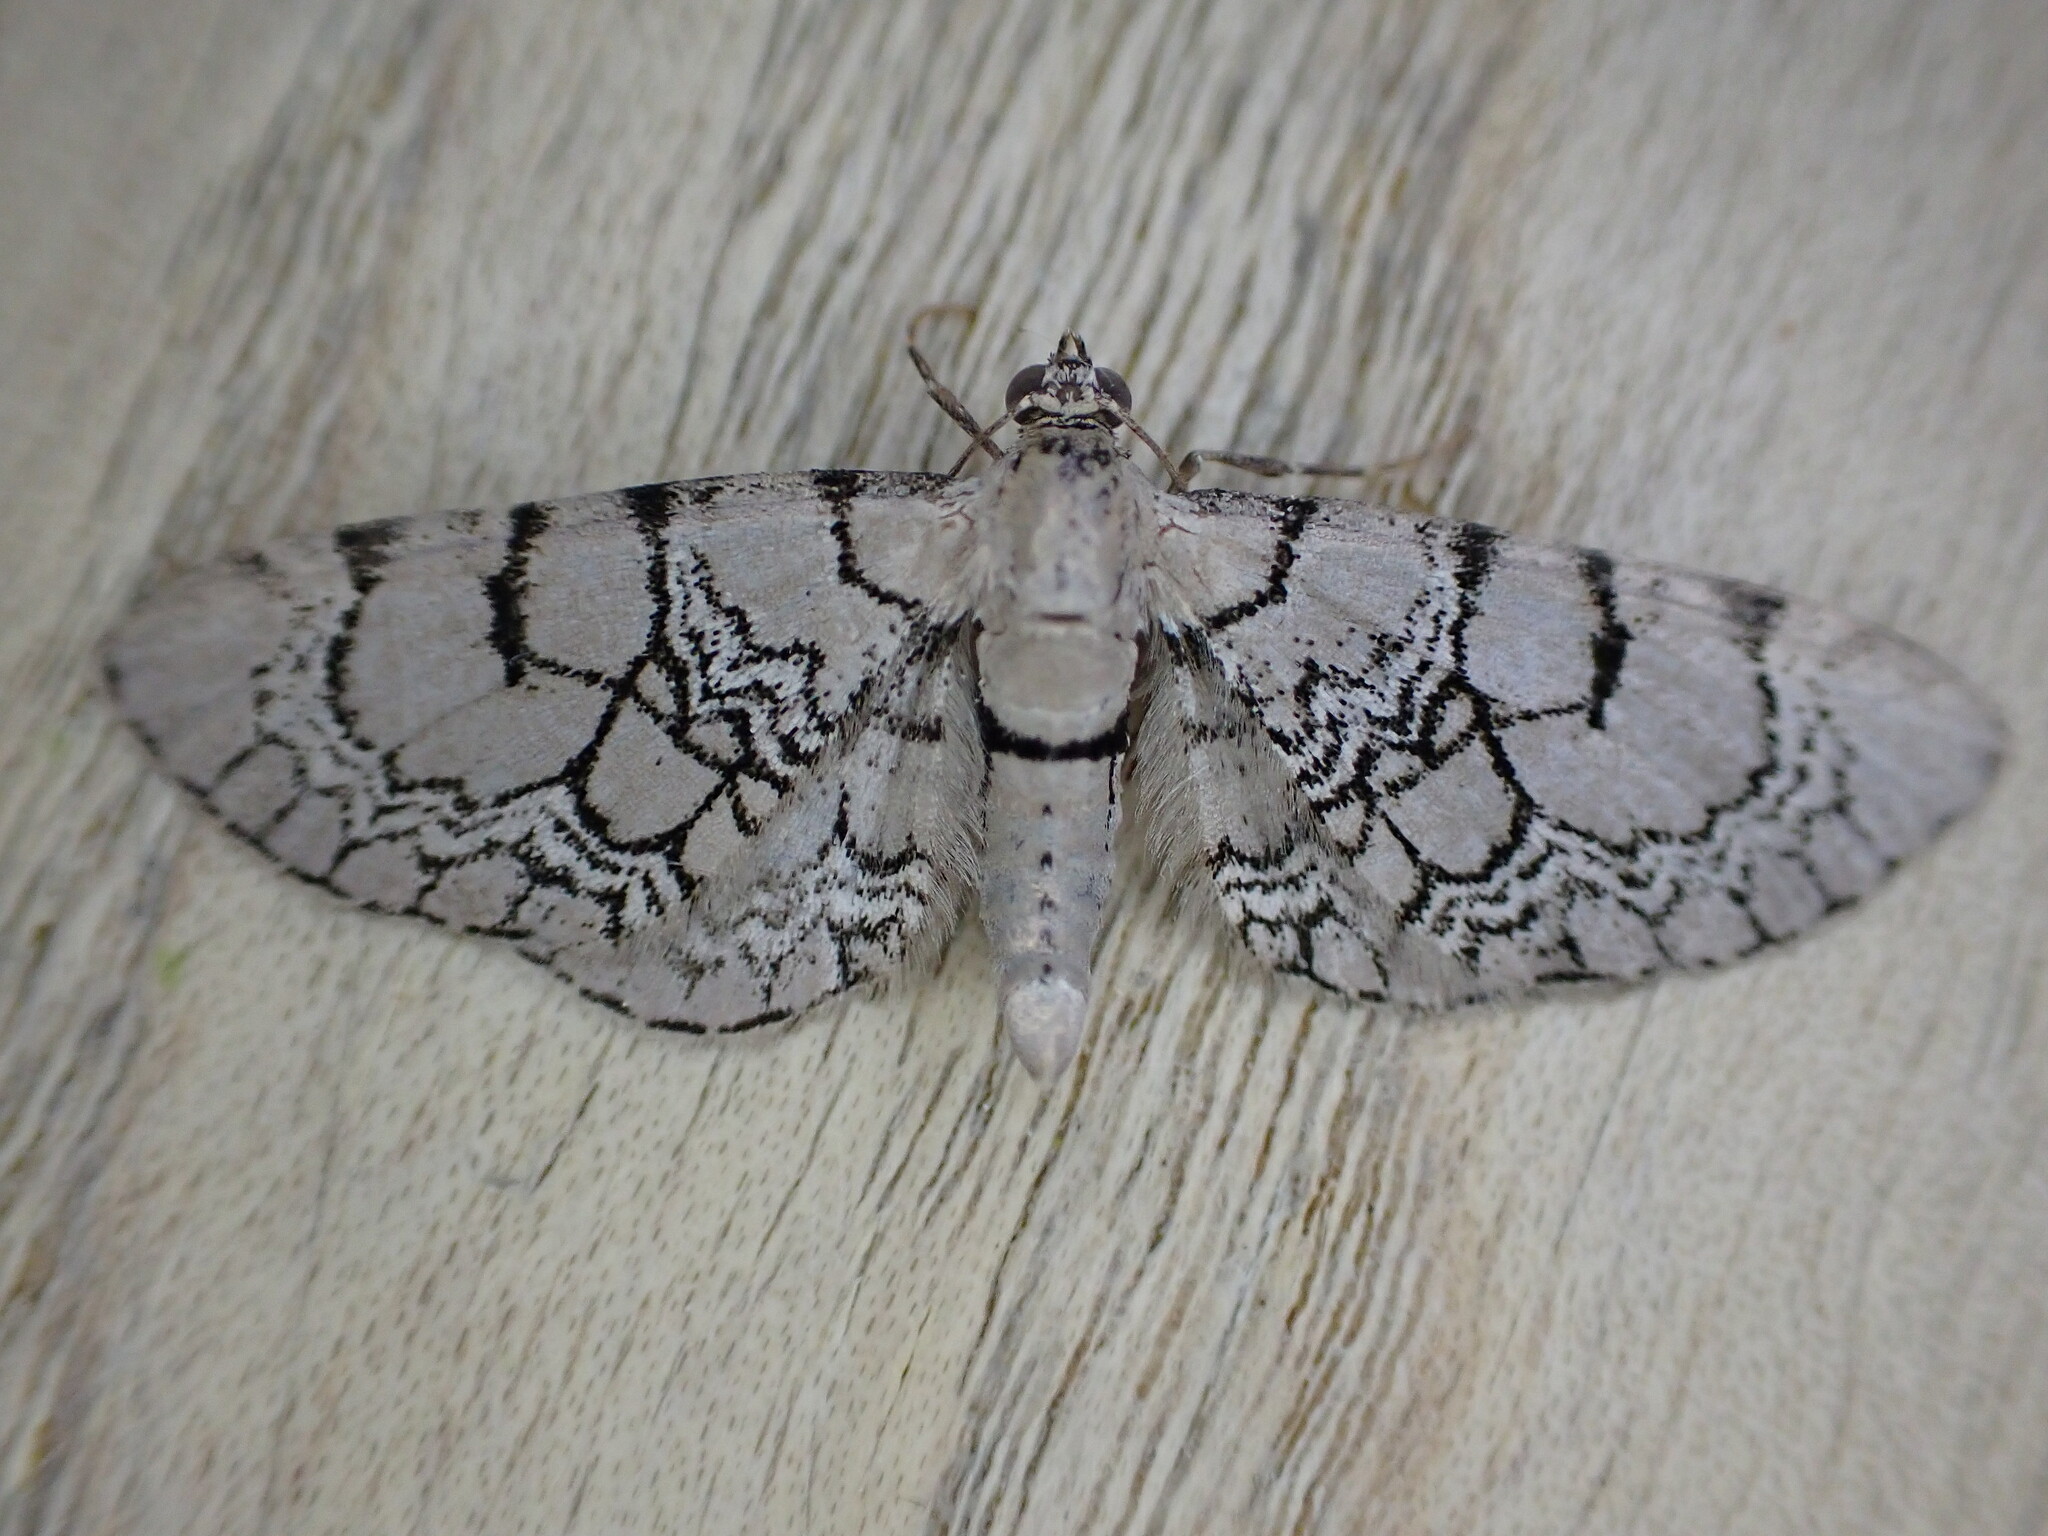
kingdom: Animalia
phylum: Arthropoda
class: Insecta
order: Lepidoptera
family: Geometridae
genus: Eupithecia
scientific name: Eupithecia venosata
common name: Netted pug
